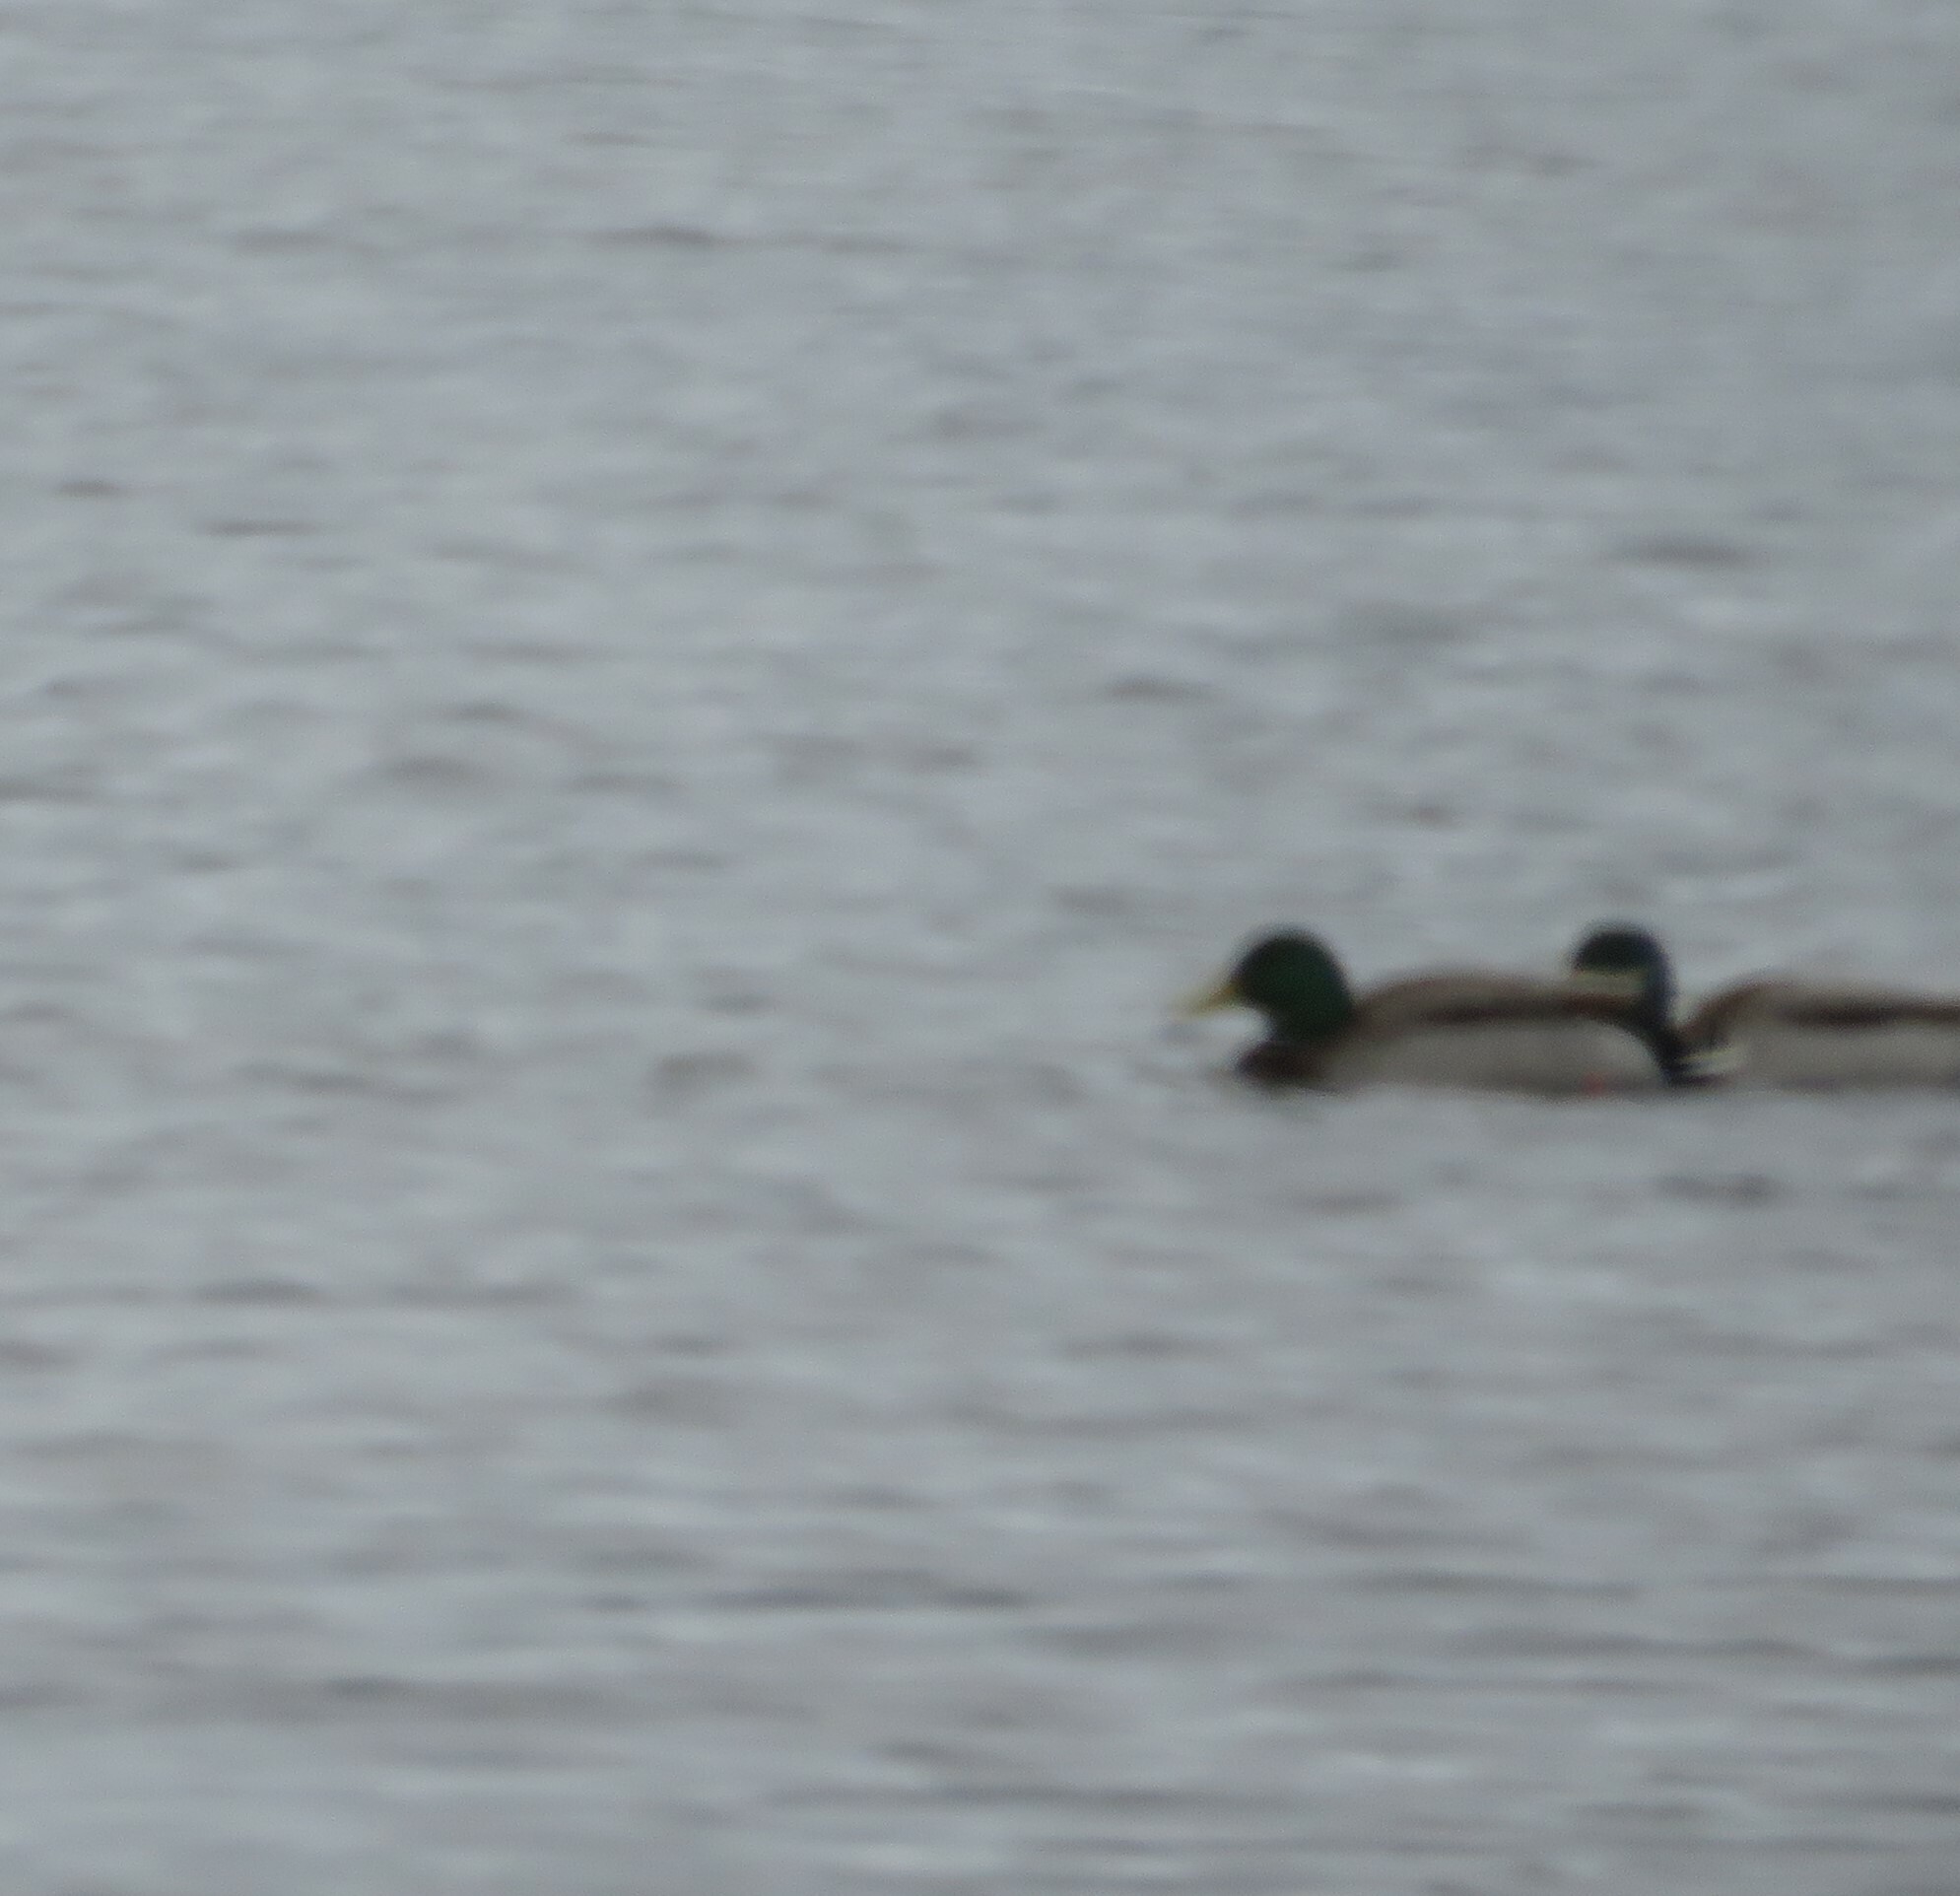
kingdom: Animalia
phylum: Chordata
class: Aves
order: Anseriformes
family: Anatidae
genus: Anas
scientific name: Anas platyrhynchos
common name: Mallard
